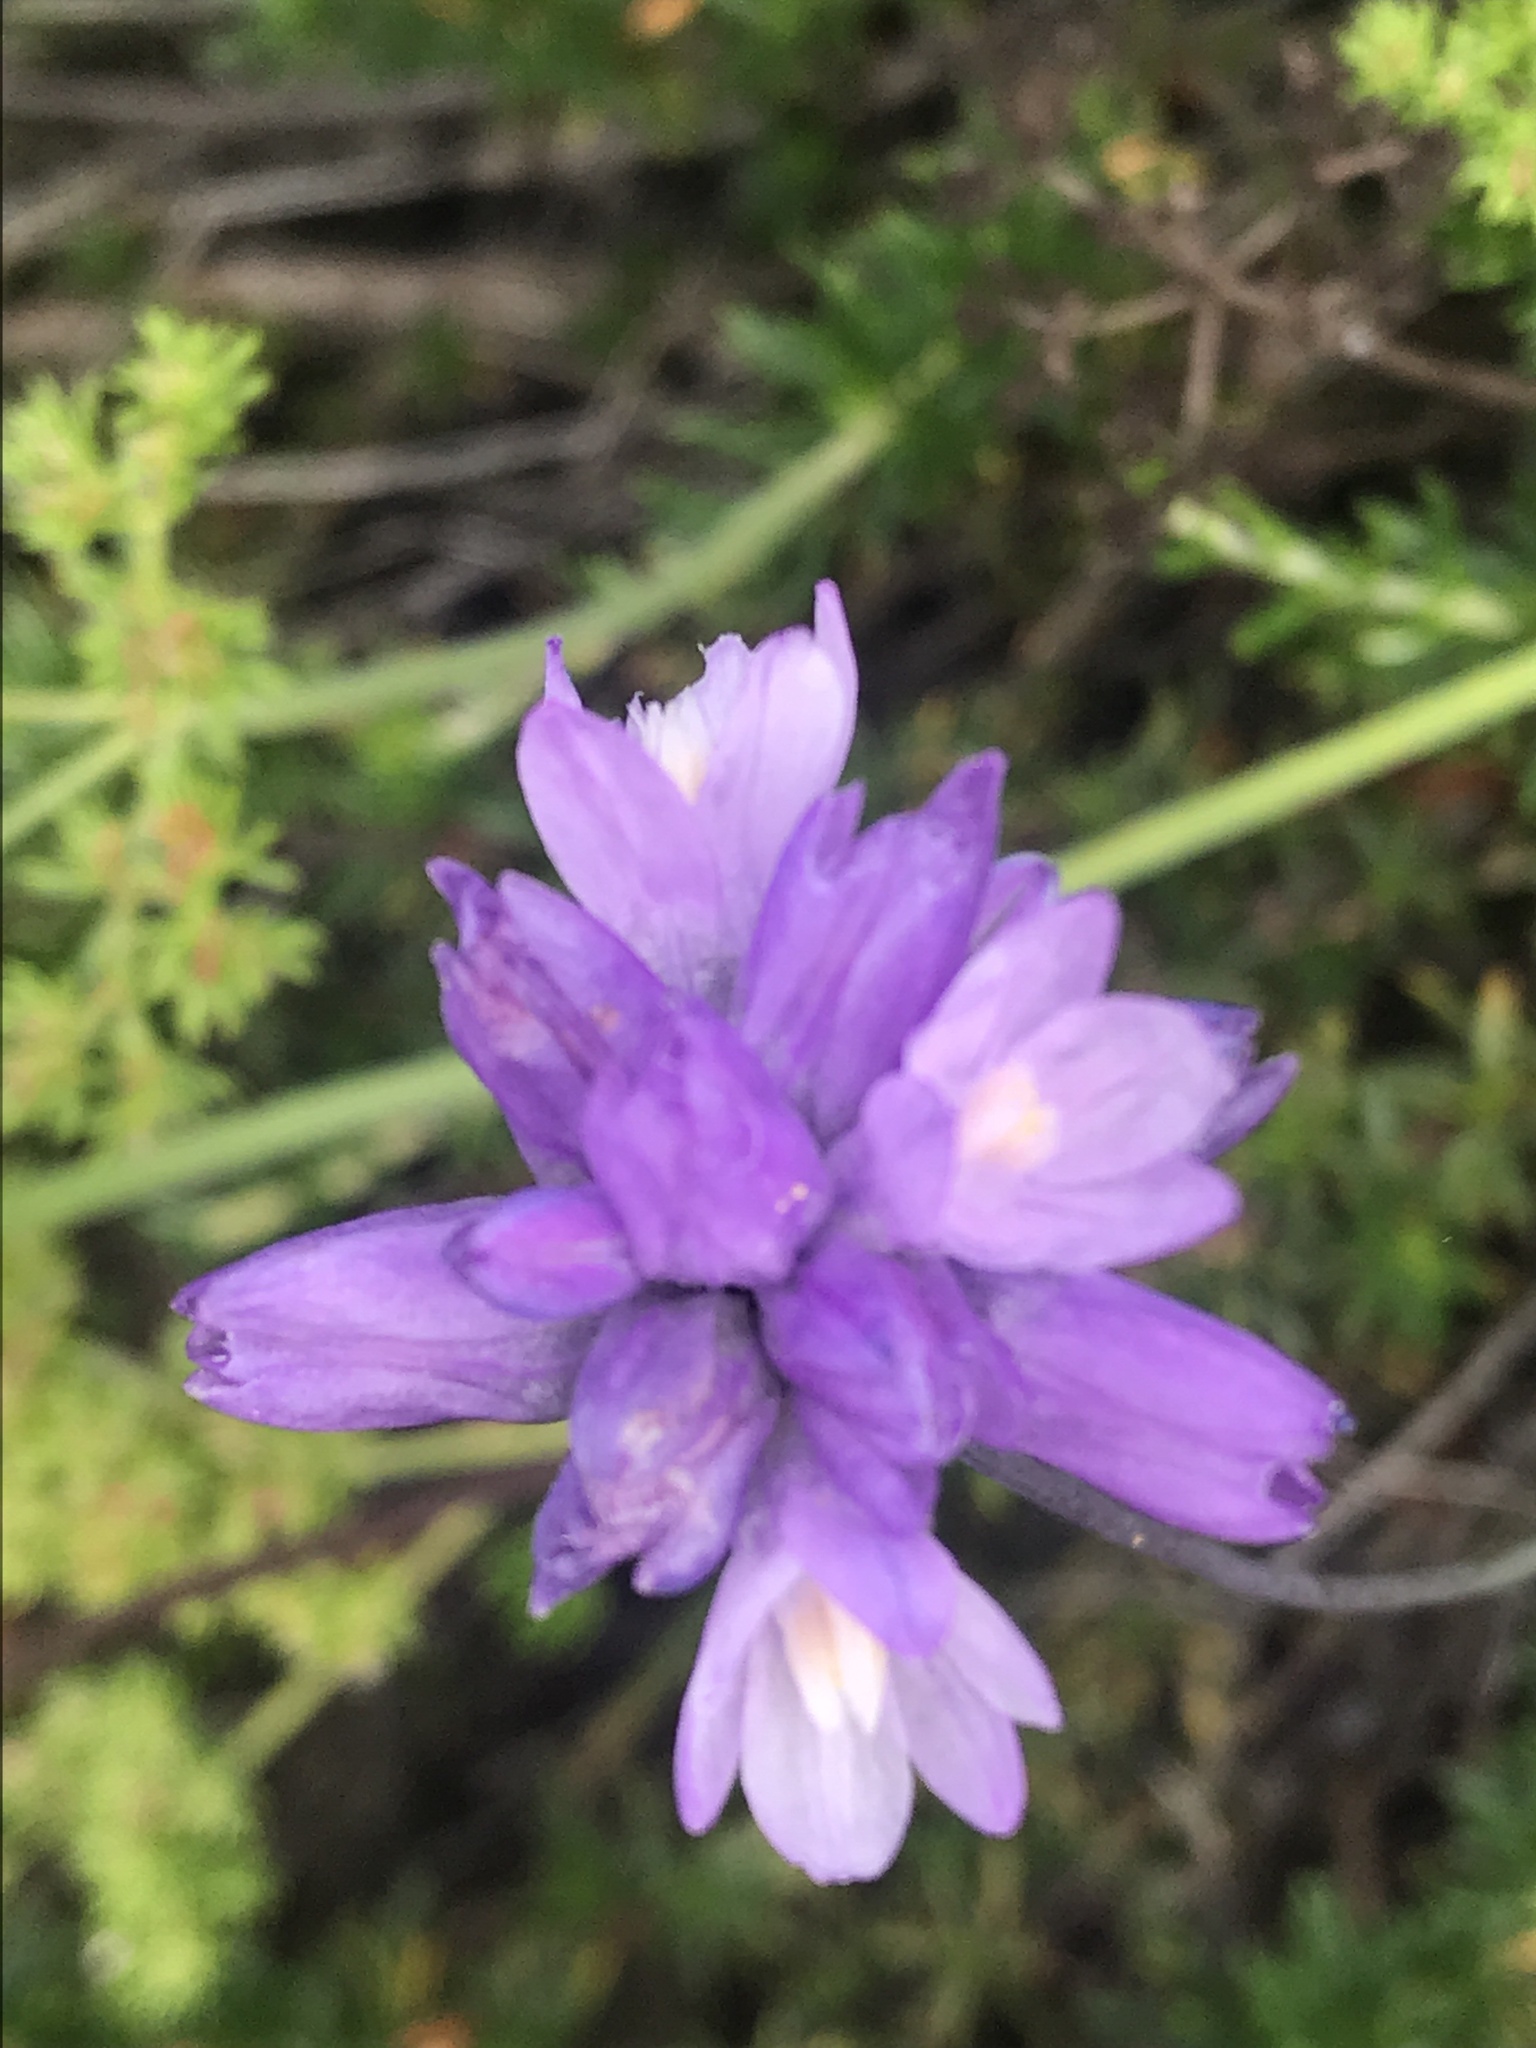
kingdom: Plantae
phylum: Tracheophyta
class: Liliopsida
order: Asparagales
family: Asparagaceae
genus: Dipterostemon
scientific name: Dipterostemon capitatus
